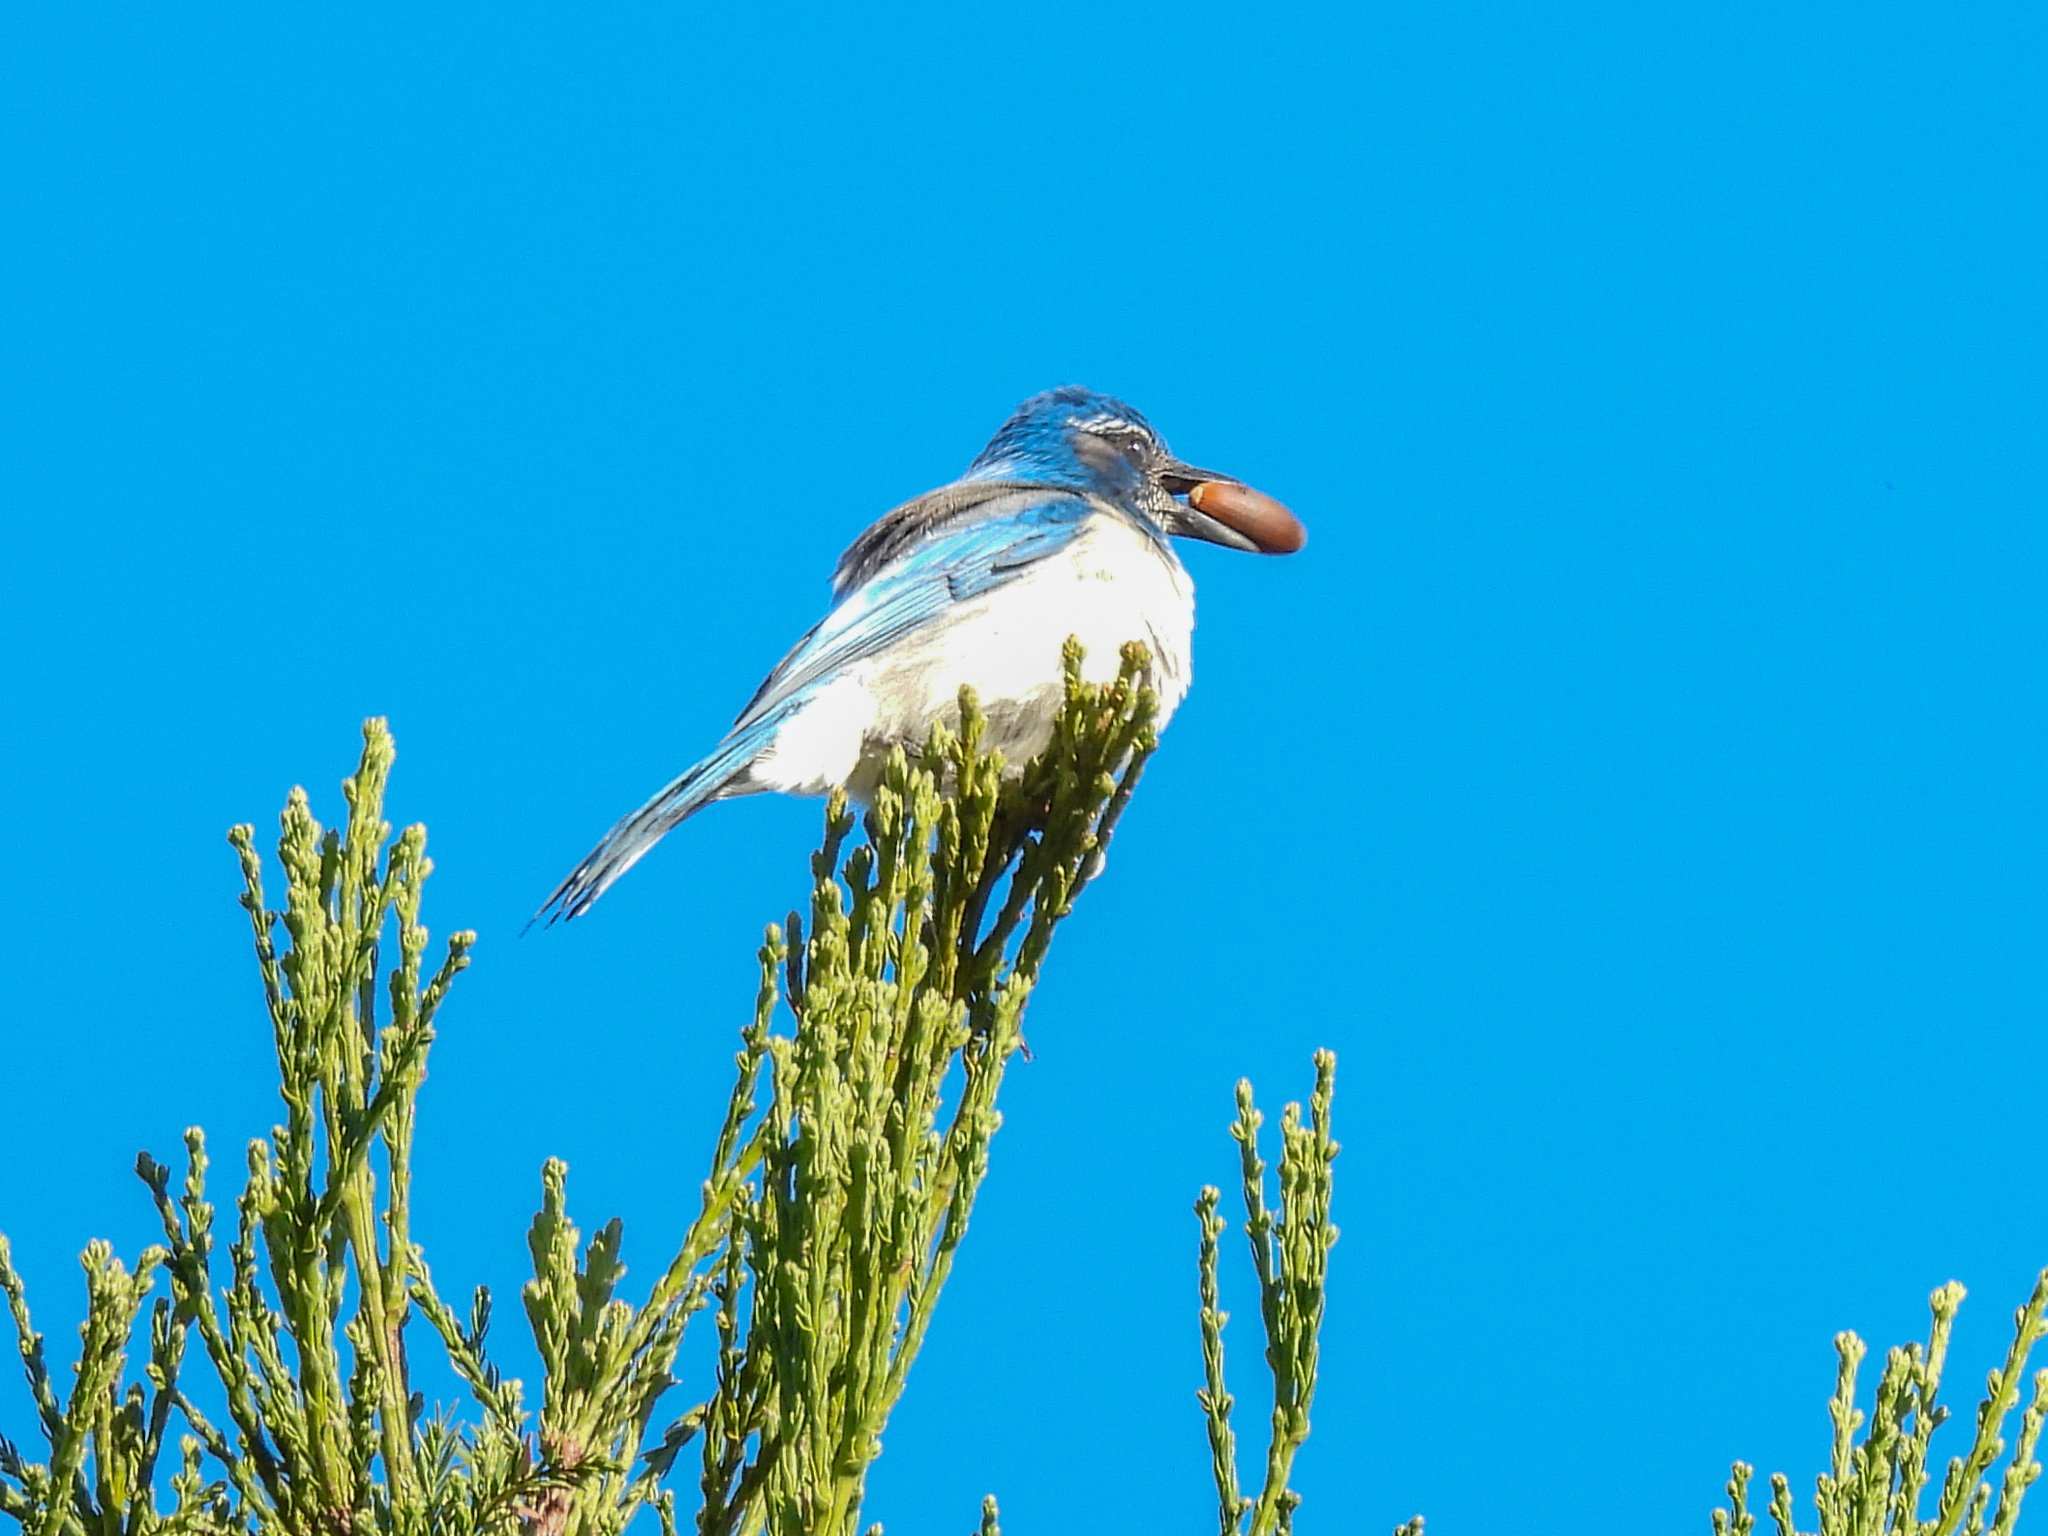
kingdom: Animalia
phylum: Chordata
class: Aves
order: Passeriformes
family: Corvidae
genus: Aphelocoma
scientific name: Aphelocoma californica
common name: California scrub-jay
